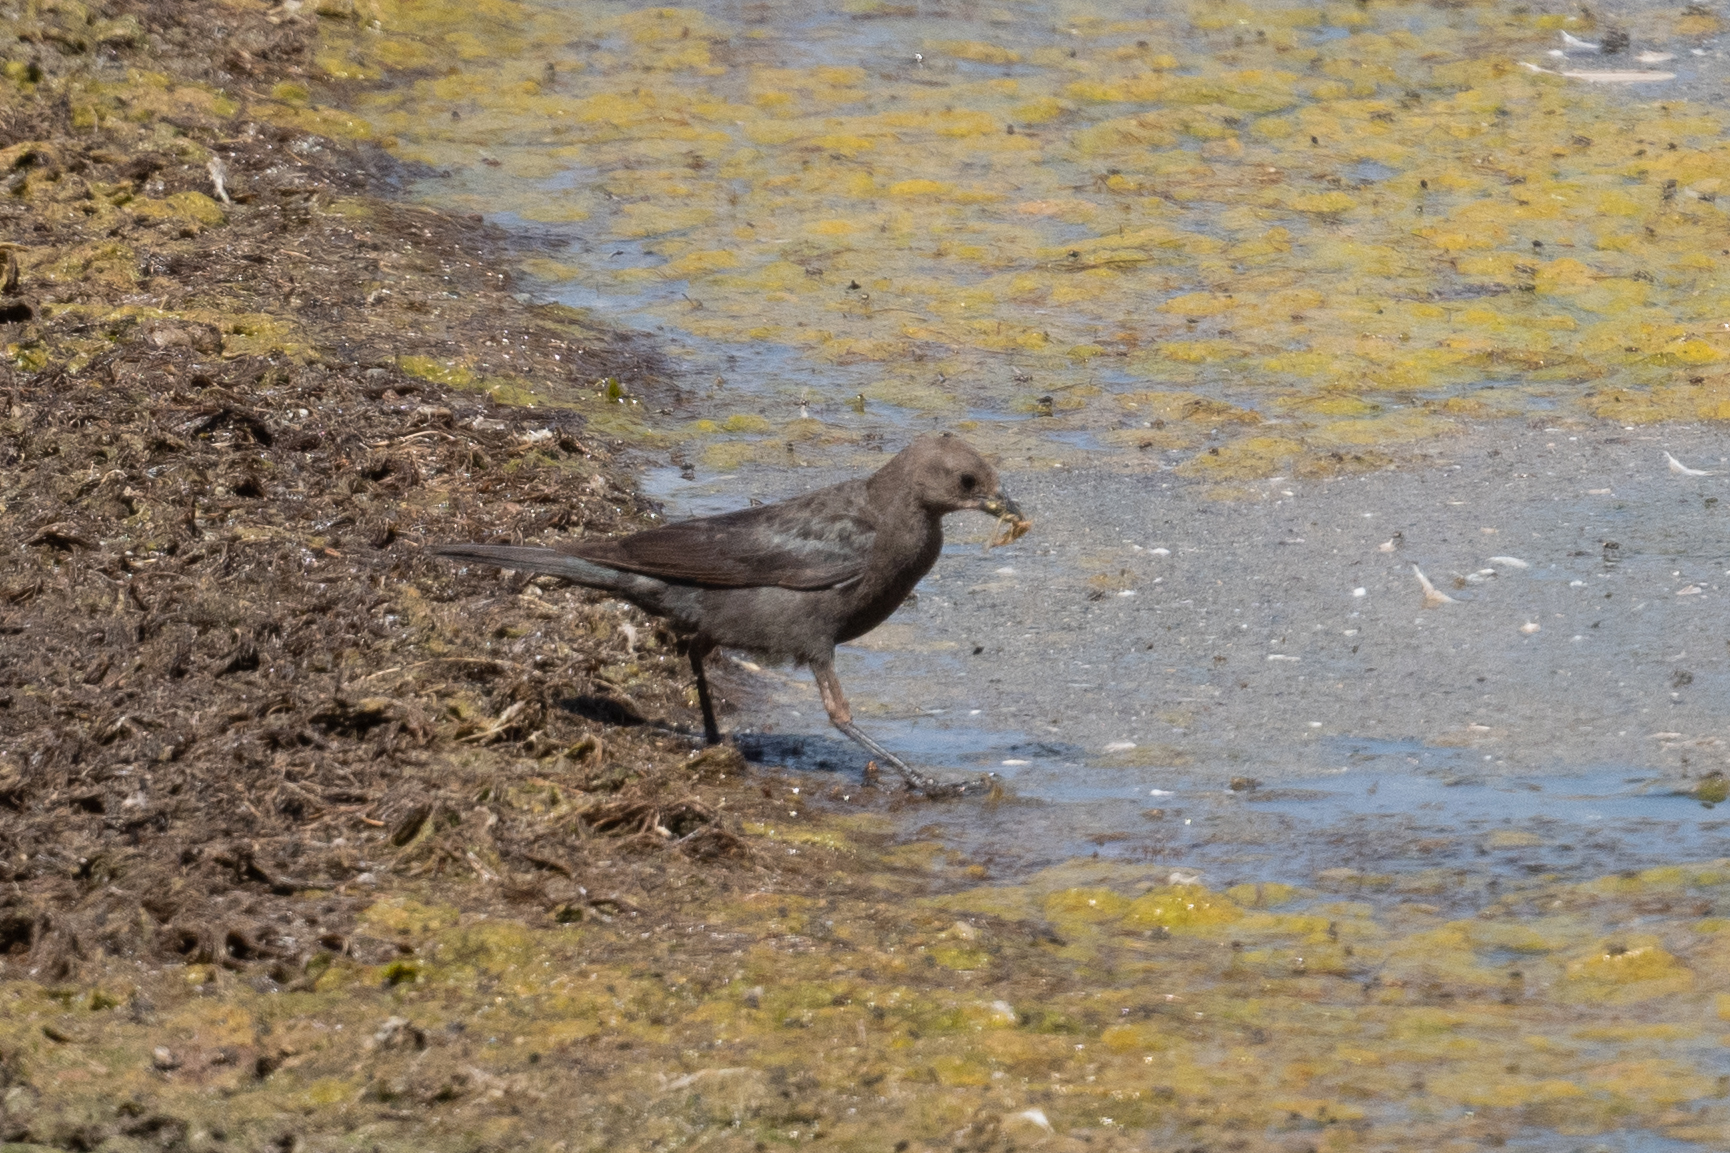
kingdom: Animalia
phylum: Chordata
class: Aves
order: Passeriformes
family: Icteridae
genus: Euphagus
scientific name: Euphagus cyanocephalus
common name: Brewer's blackbird
